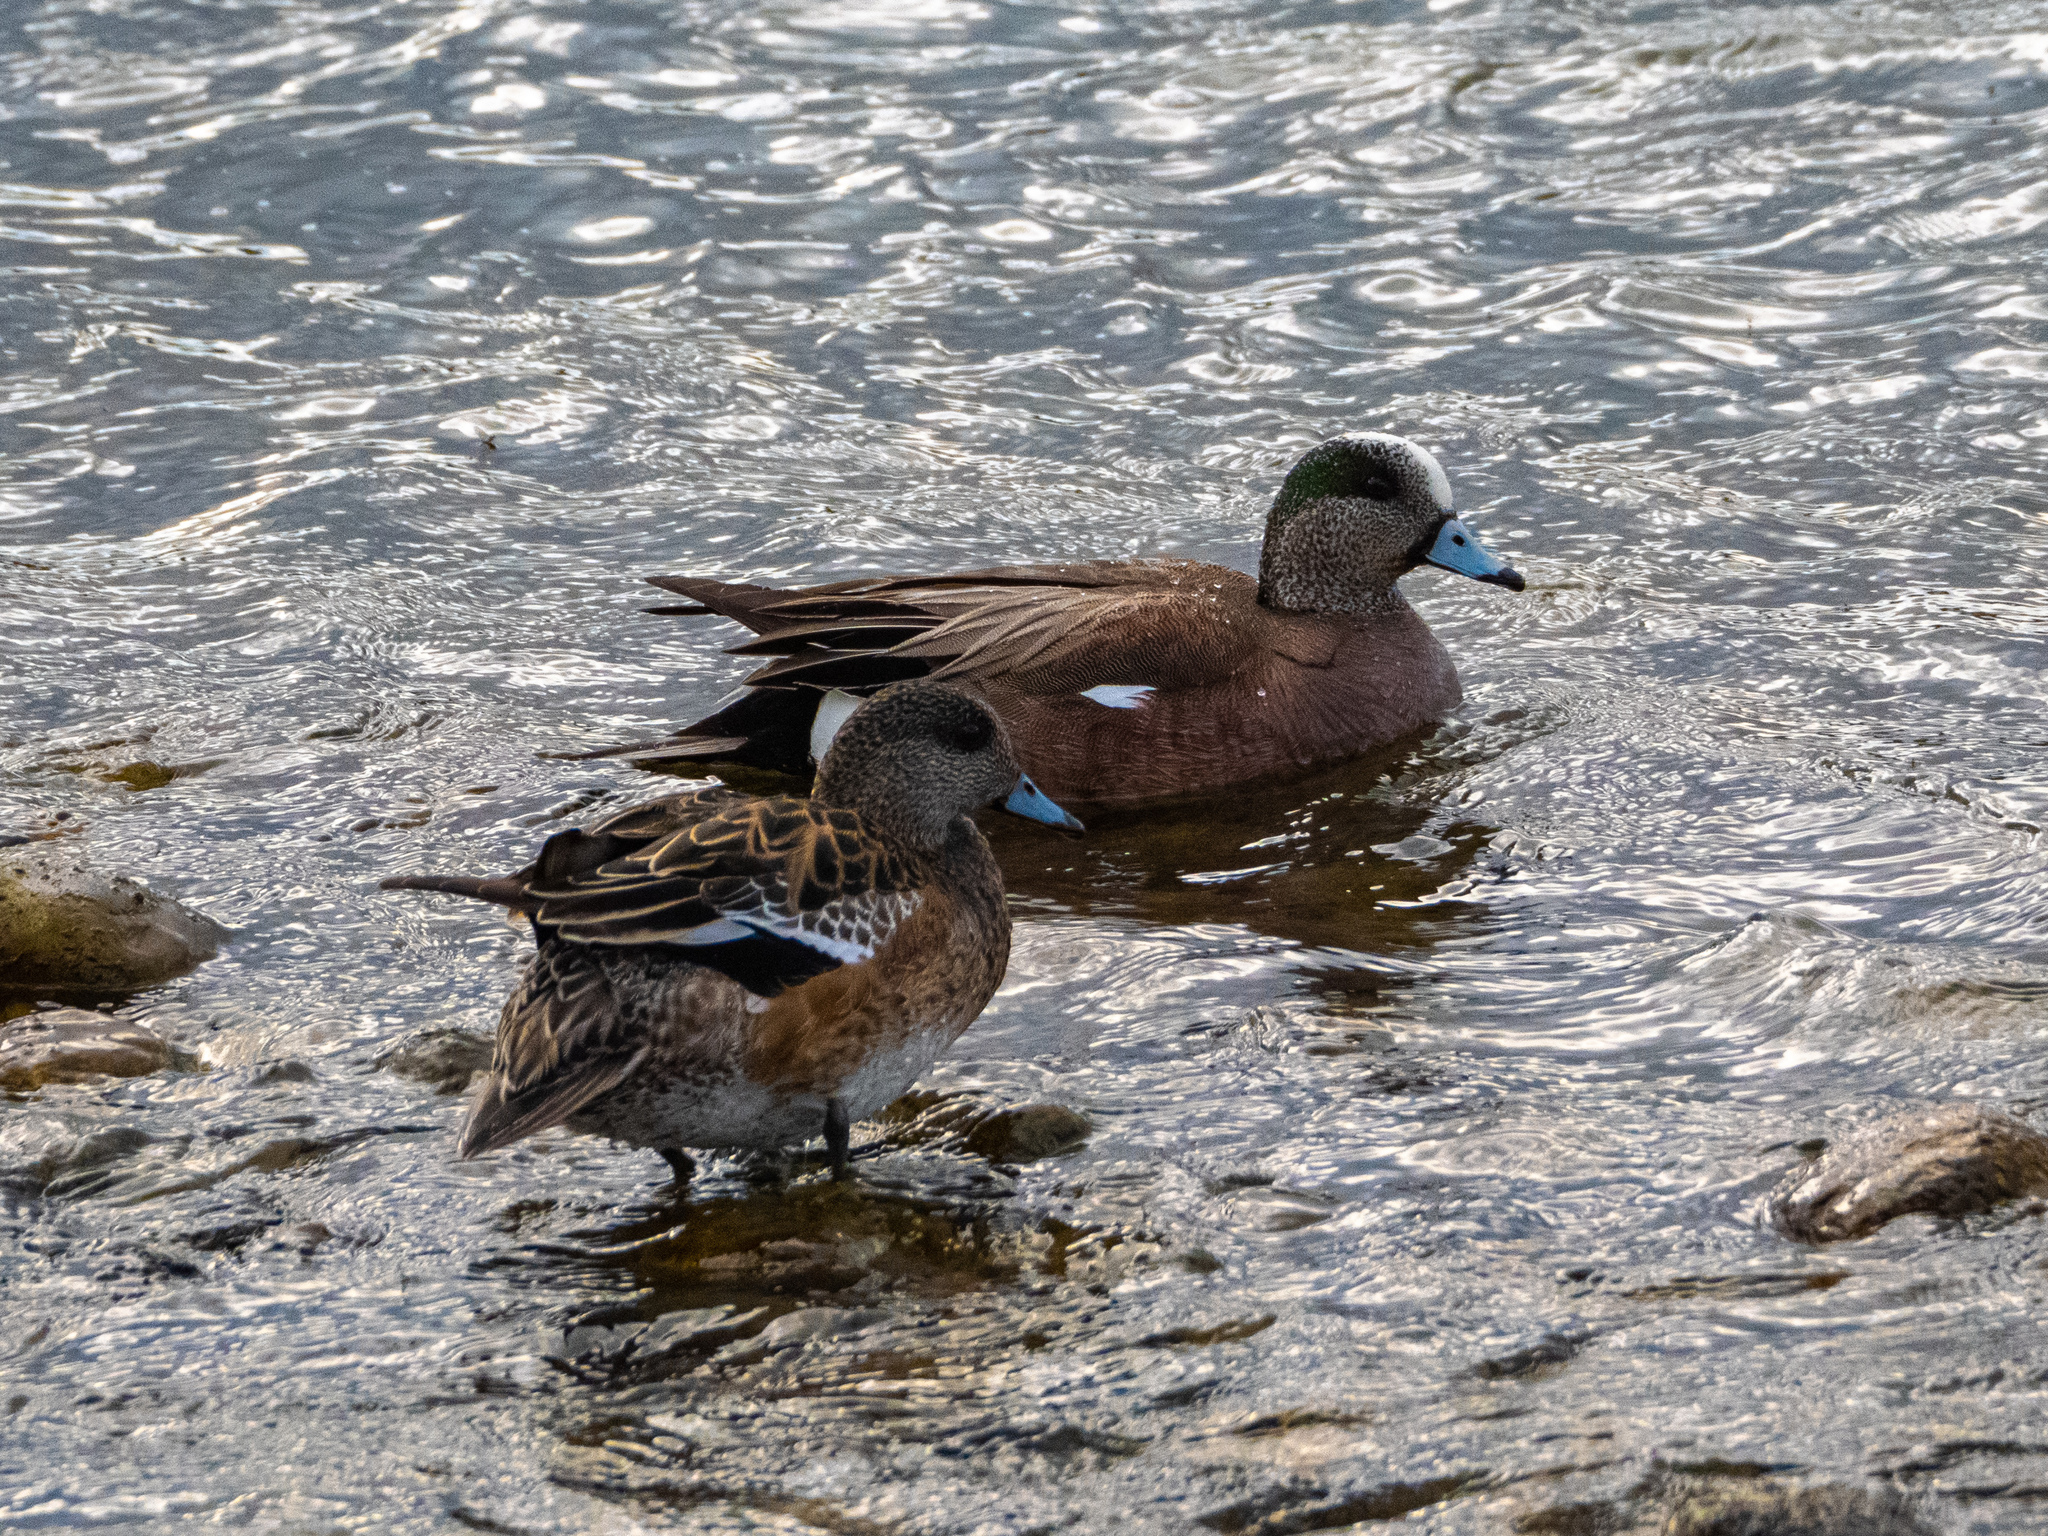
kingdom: Animalia
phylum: Chordata
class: Aves
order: Anseriformes
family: Anatidae
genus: Mareca
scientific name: Mareca americana
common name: American wigeon
